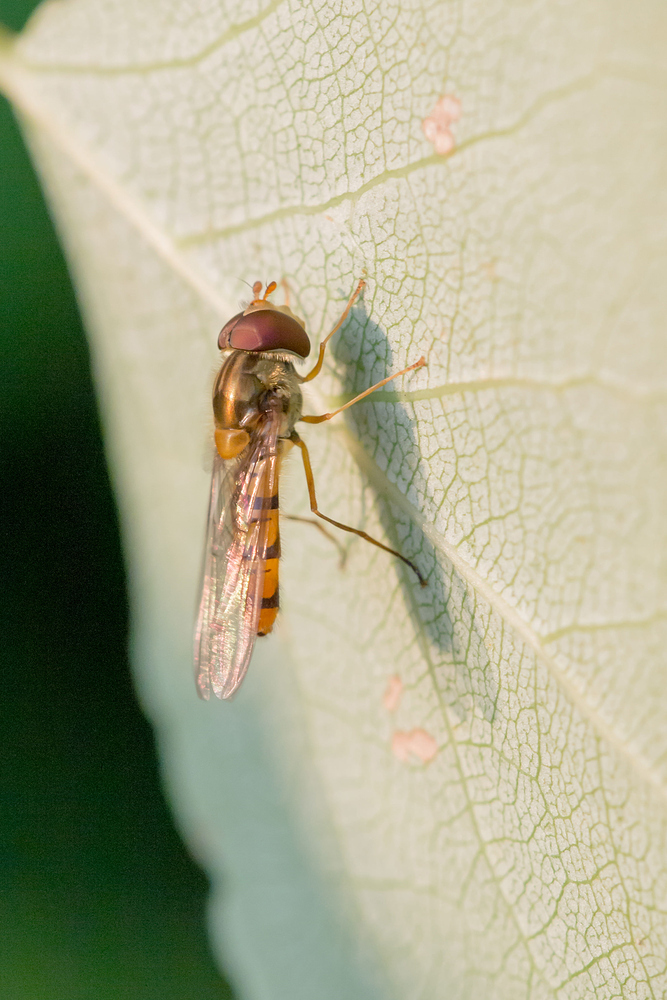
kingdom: Animalia
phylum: Arthropoda
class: Insecta
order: Diptera
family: Syrphidae
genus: Episyrphus
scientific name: Episyrphus balteatus
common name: Marmalade hoverfly
